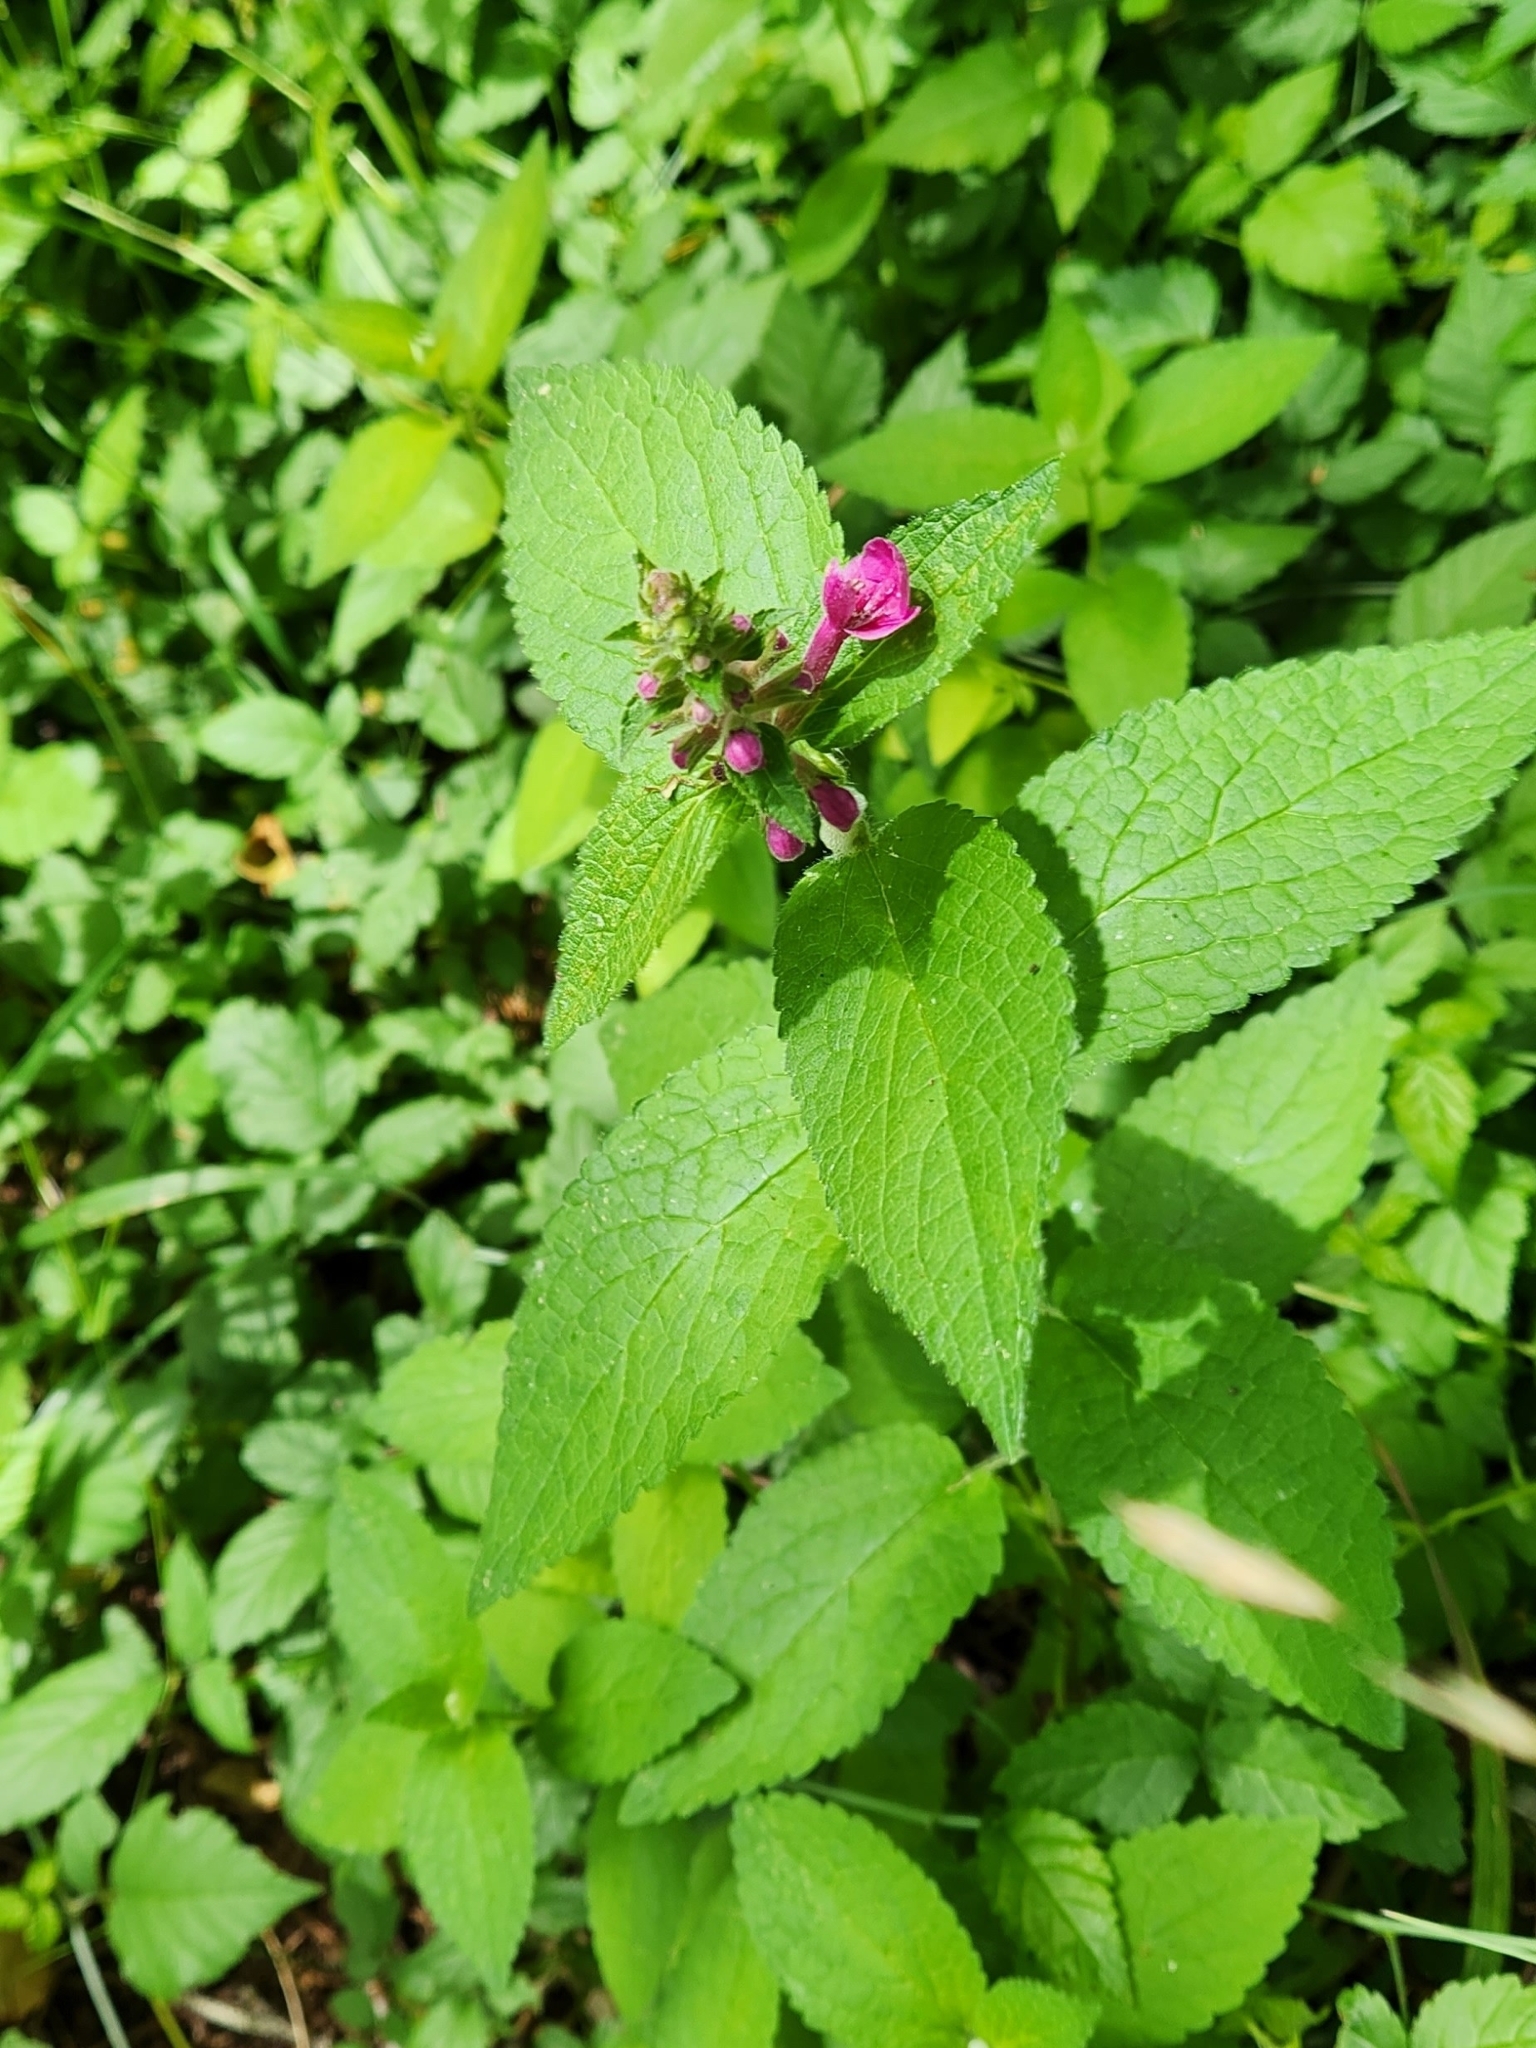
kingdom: Plantae
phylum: Tracheophyta
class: Magnoliopsida
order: Lamiales
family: Lamiaceae
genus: Stachys
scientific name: Stachys chamissonis
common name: Coastal hedge-nettle
